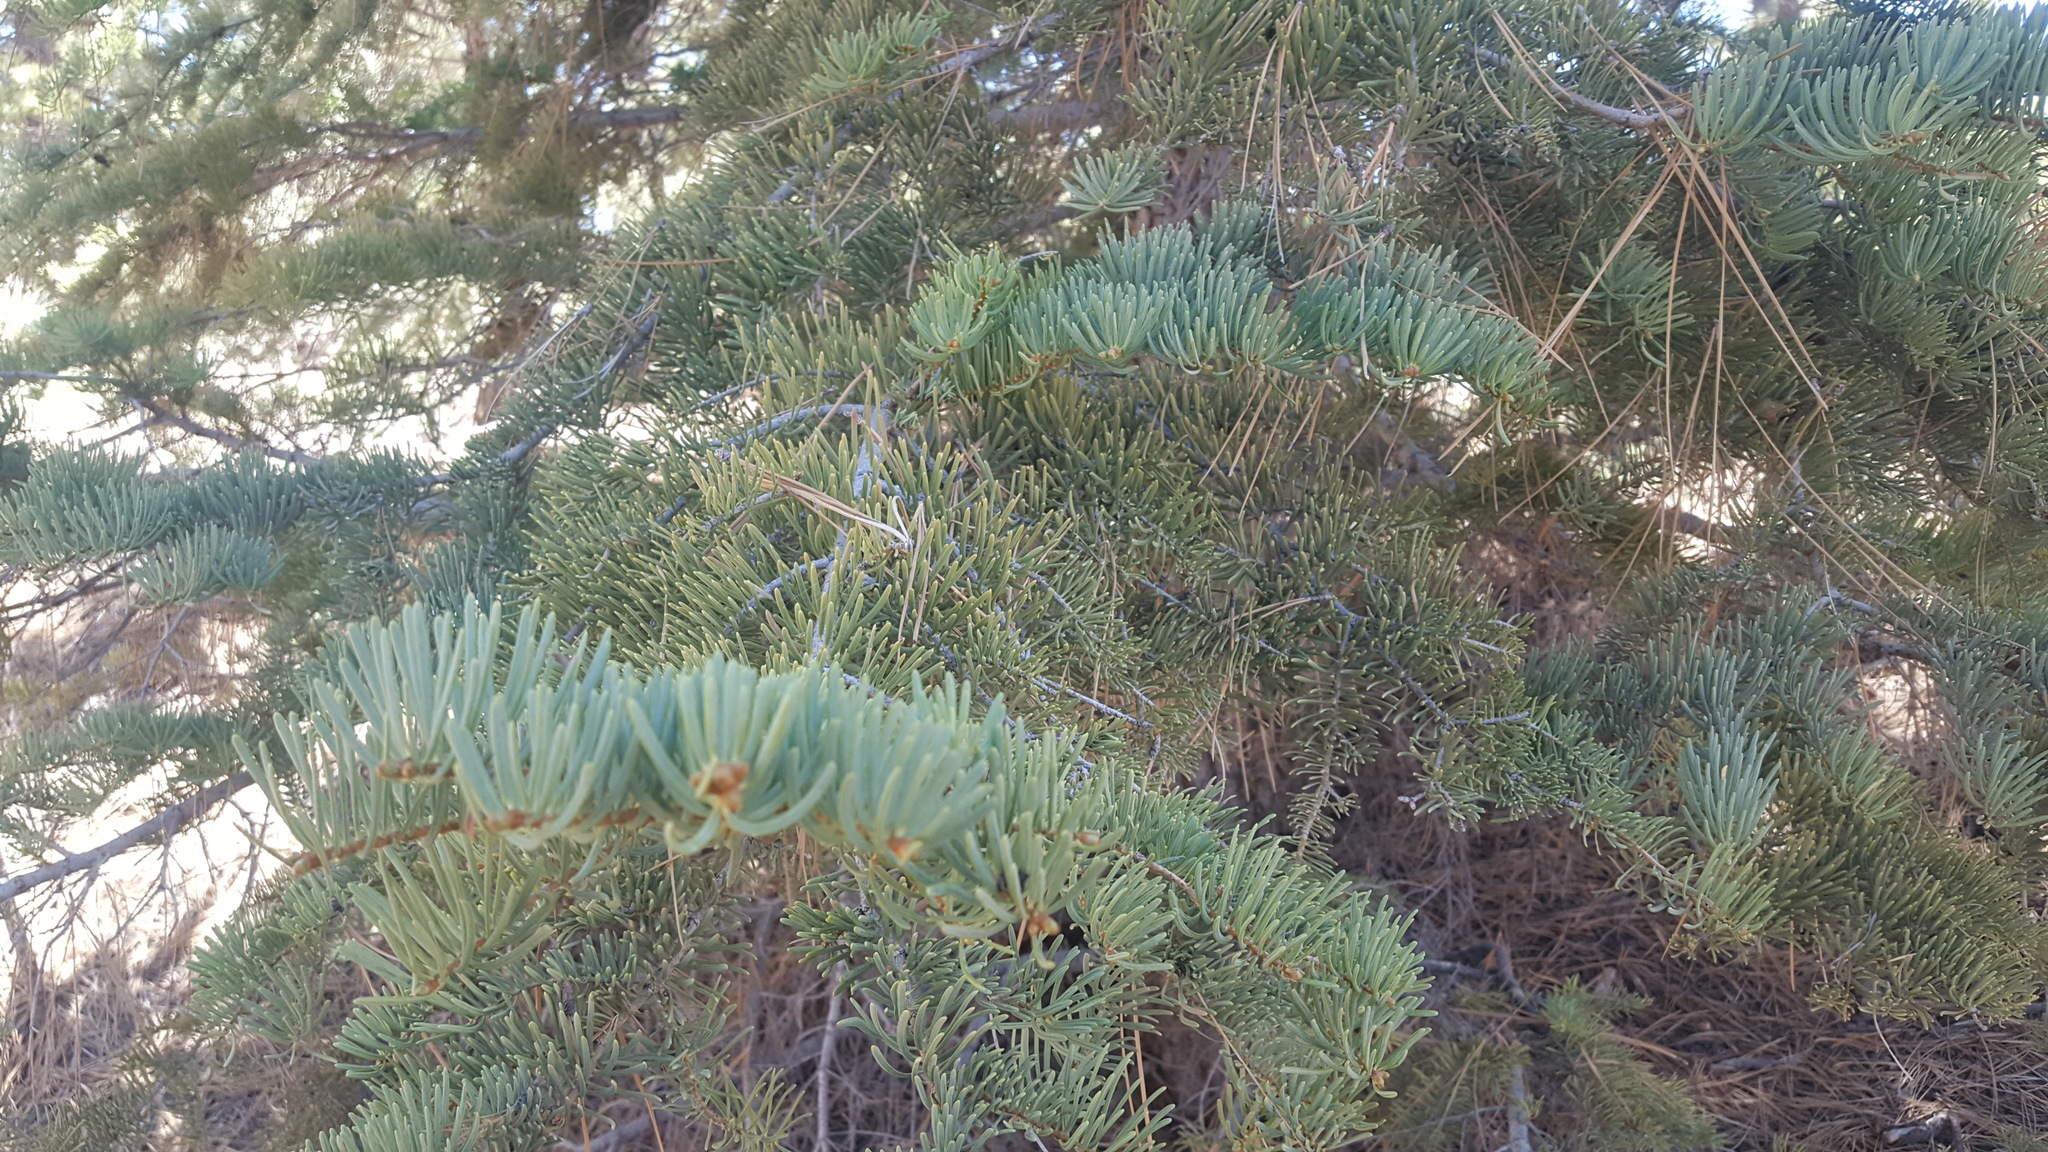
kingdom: Plantae
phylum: Tracheophyta
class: Pinopsida
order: Pinales
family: Pinaceae
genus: Abies
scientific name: Abies concolor
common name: Colorado fir
